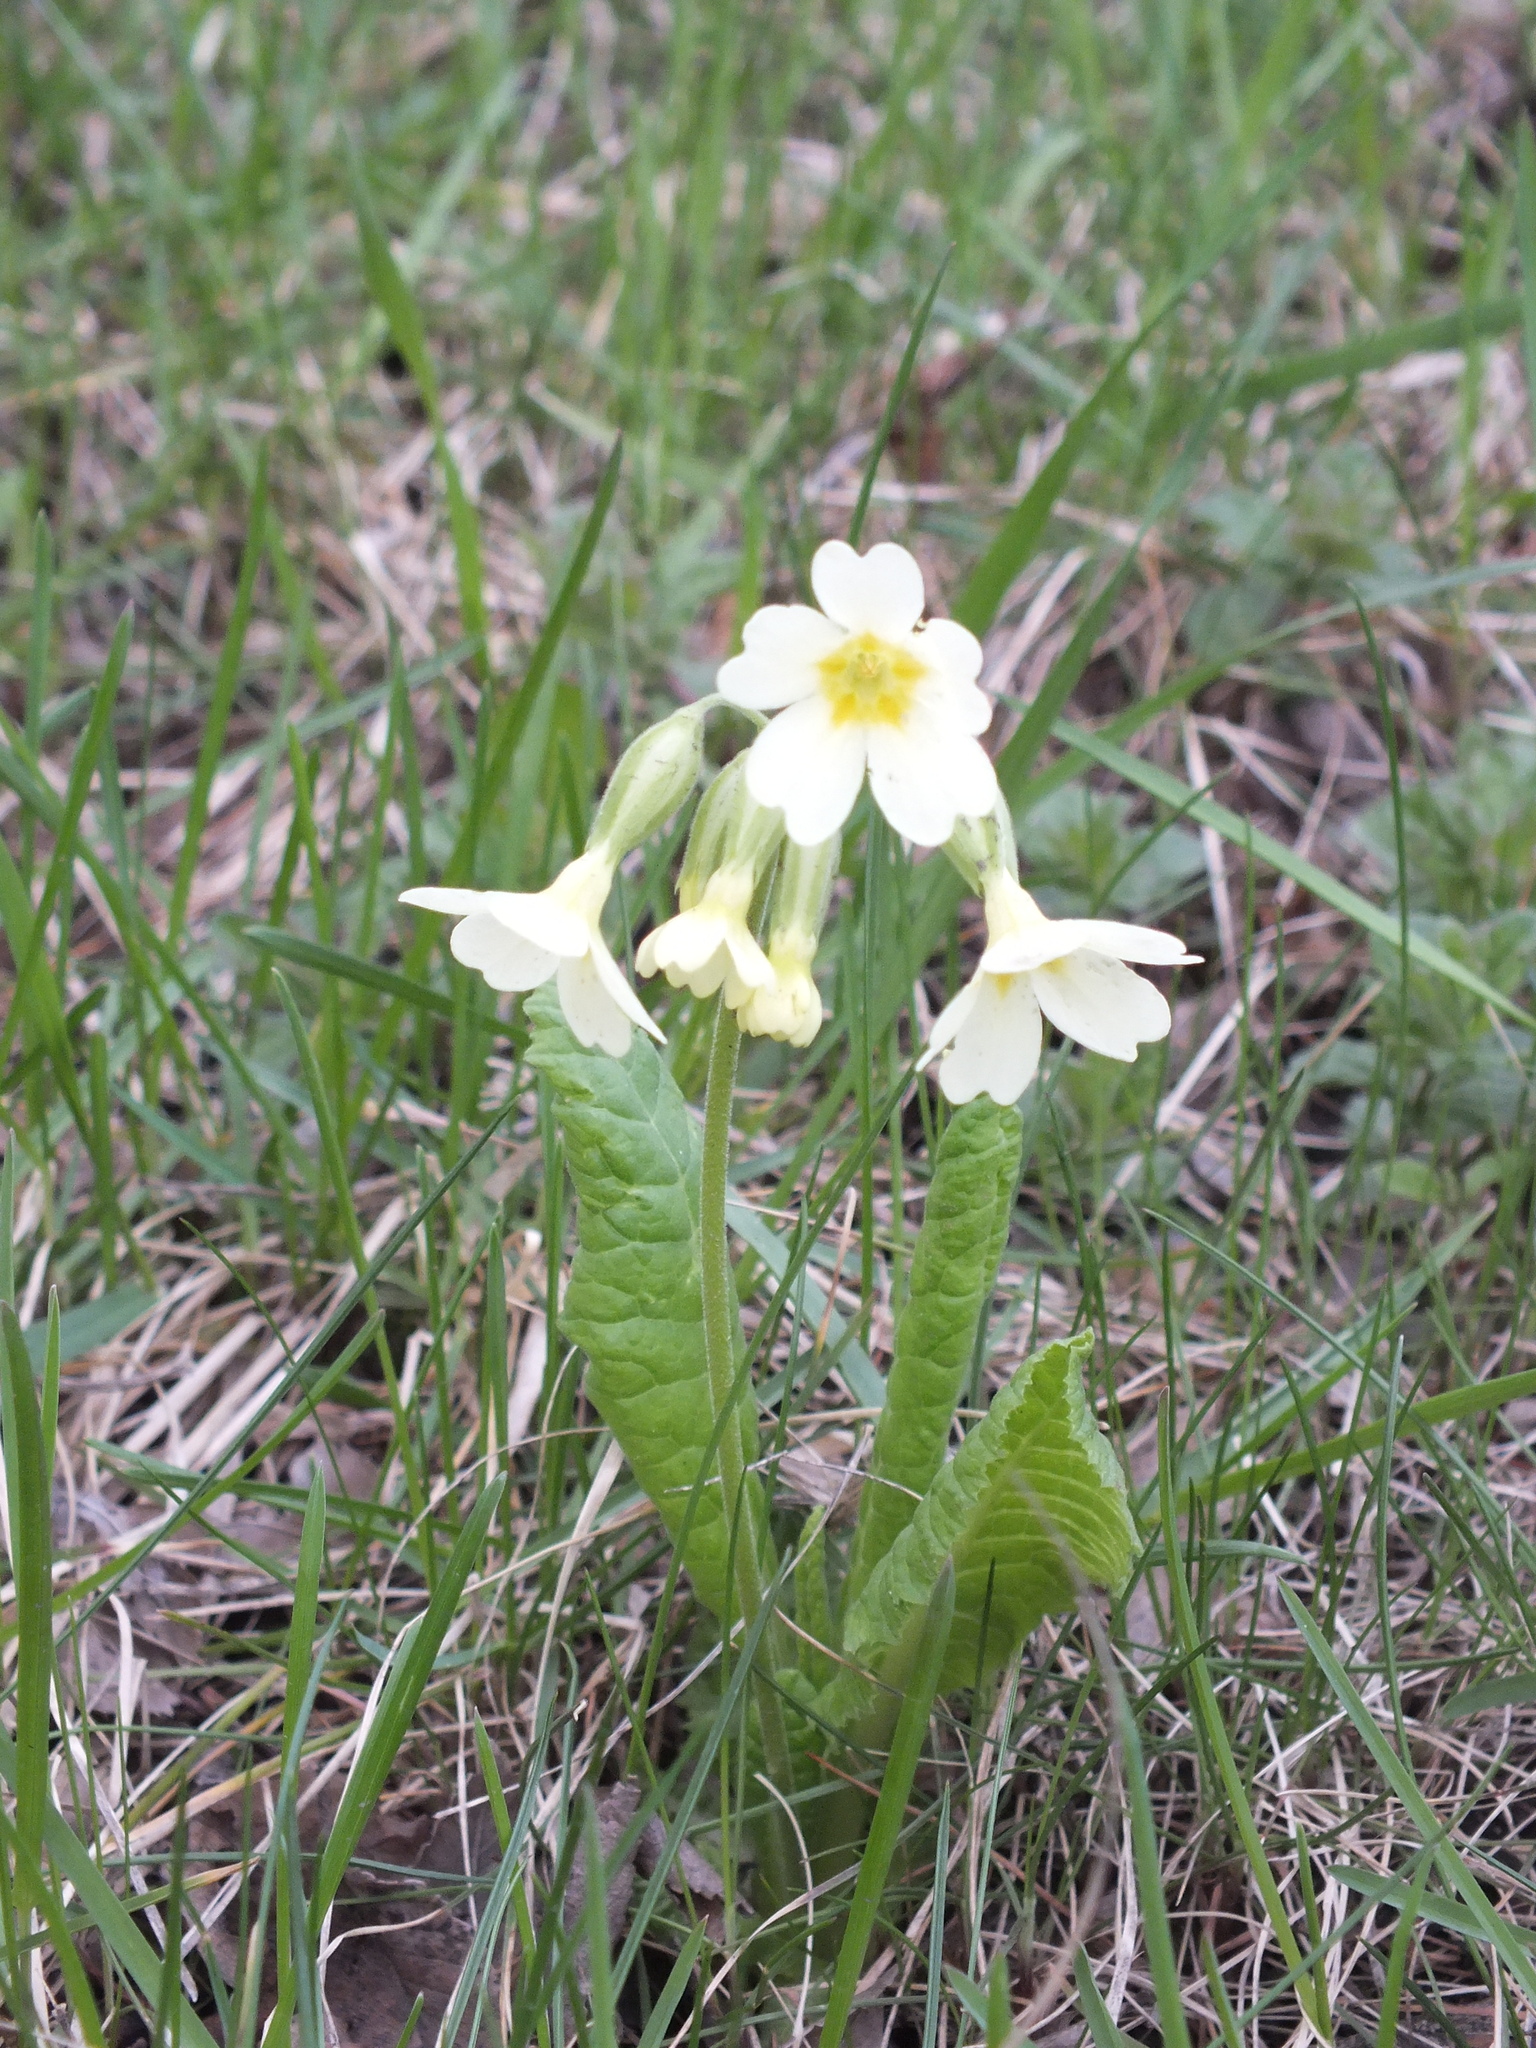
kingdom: Plantae
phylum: Tracheophyta
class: Magnoliopsida
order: Ericales
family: Primulaceae
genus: Primula
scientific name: Primula elatior
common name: Oxlip
